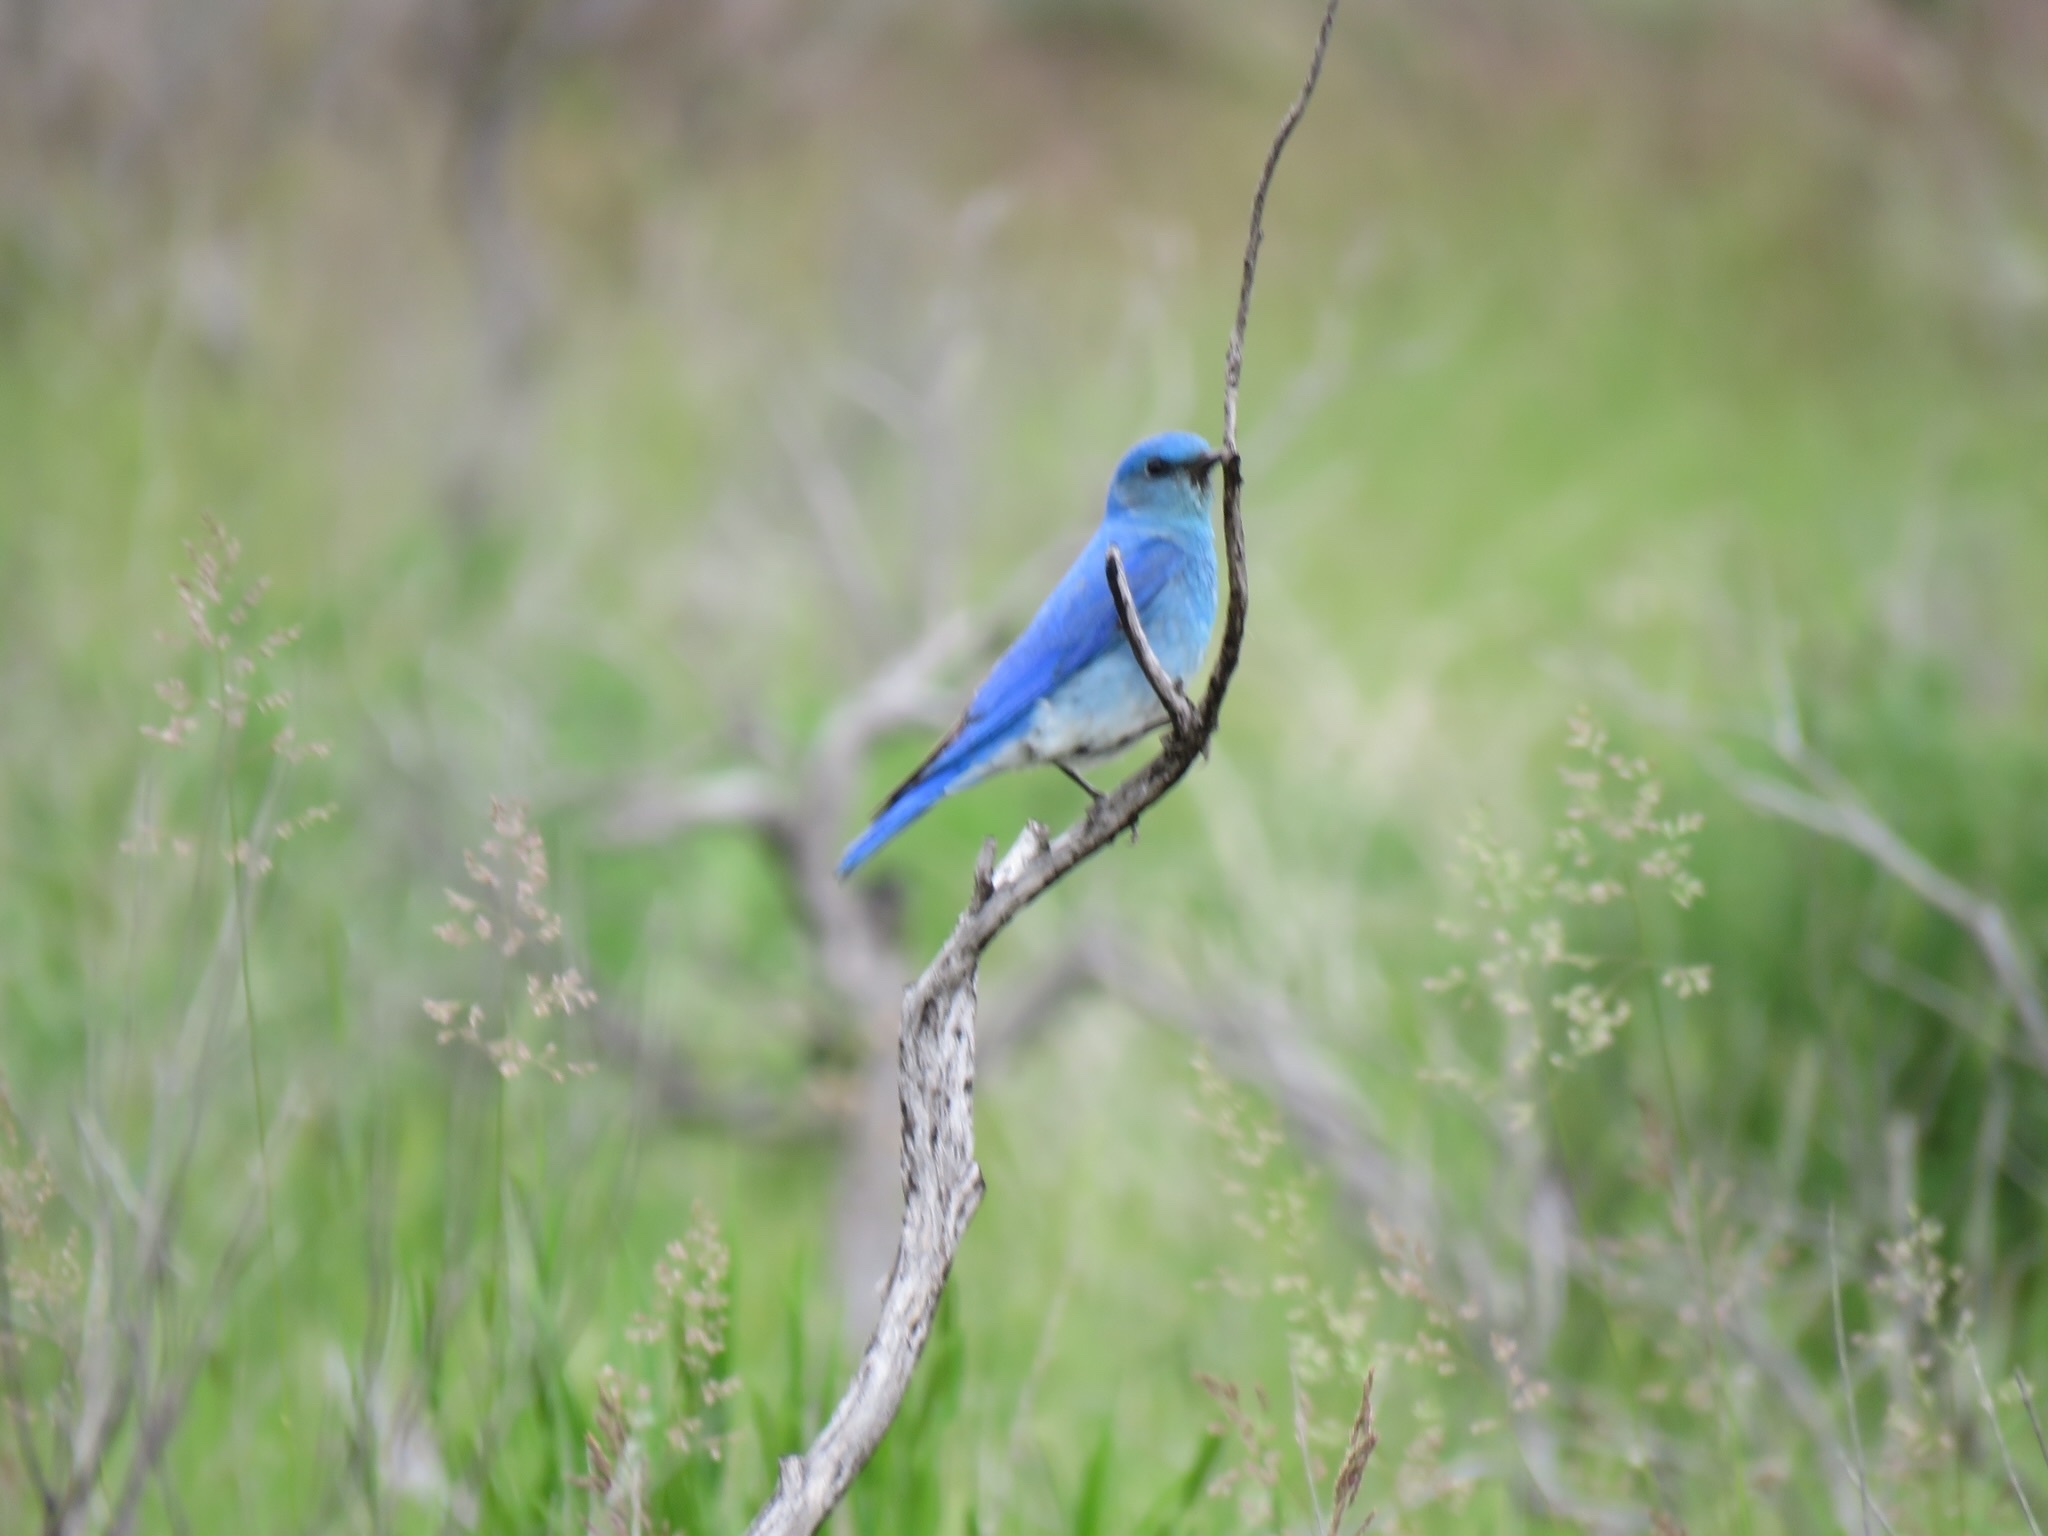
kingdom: Animalia
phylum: Chordata
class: Aves
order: Passeriformes
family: Turdidae
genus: Sialia
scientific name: Sialia currucoides
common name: Mountain bluebird
